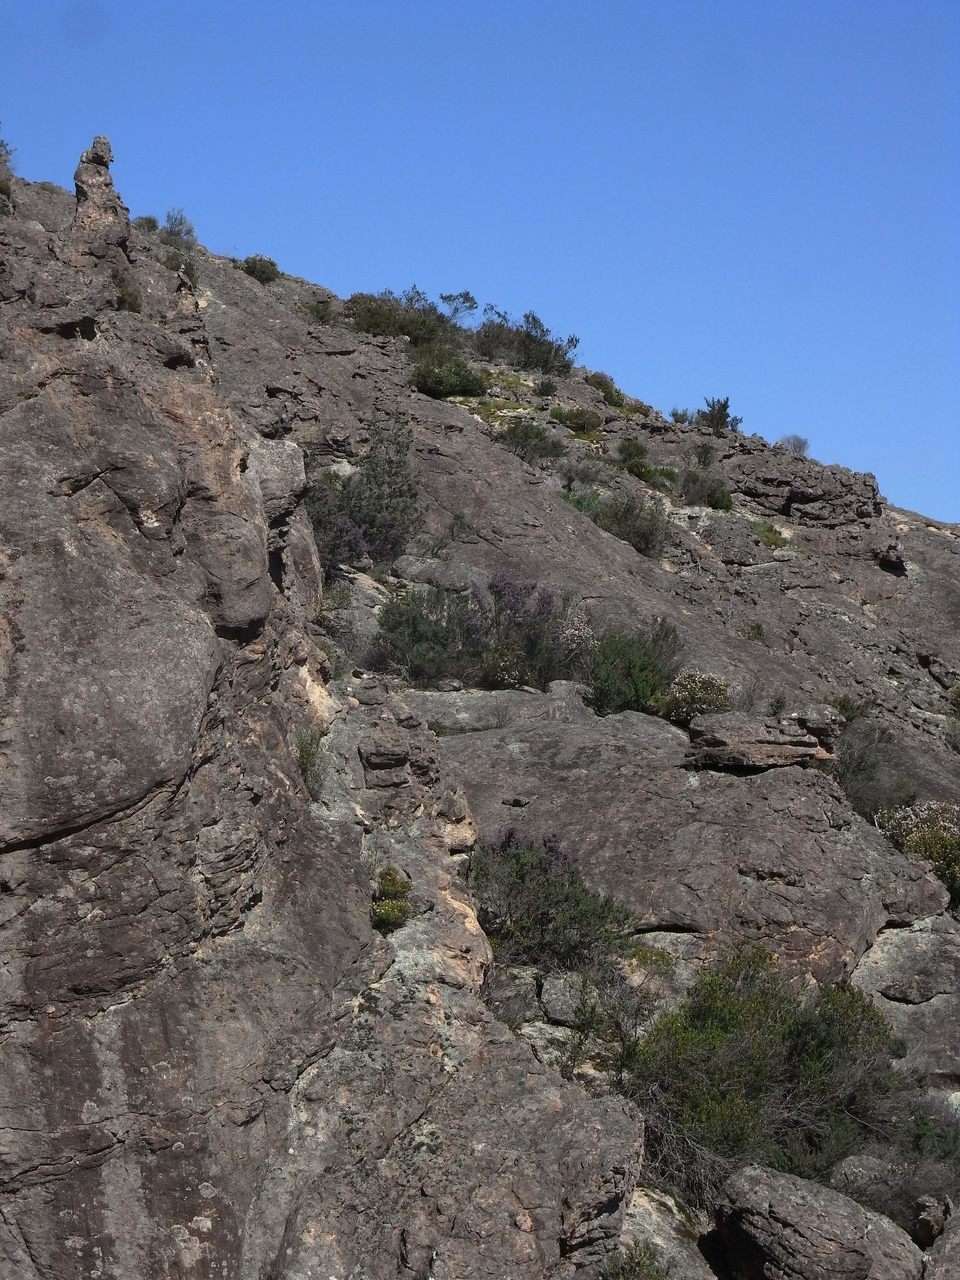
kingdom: Plantae
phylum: Tracheophyta
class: Magnoliopsida
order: Lamiales
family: Lamiaceae
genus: Prostanthera
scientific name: Prostanthera rotundifolia
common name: Round-leaf mintbush
